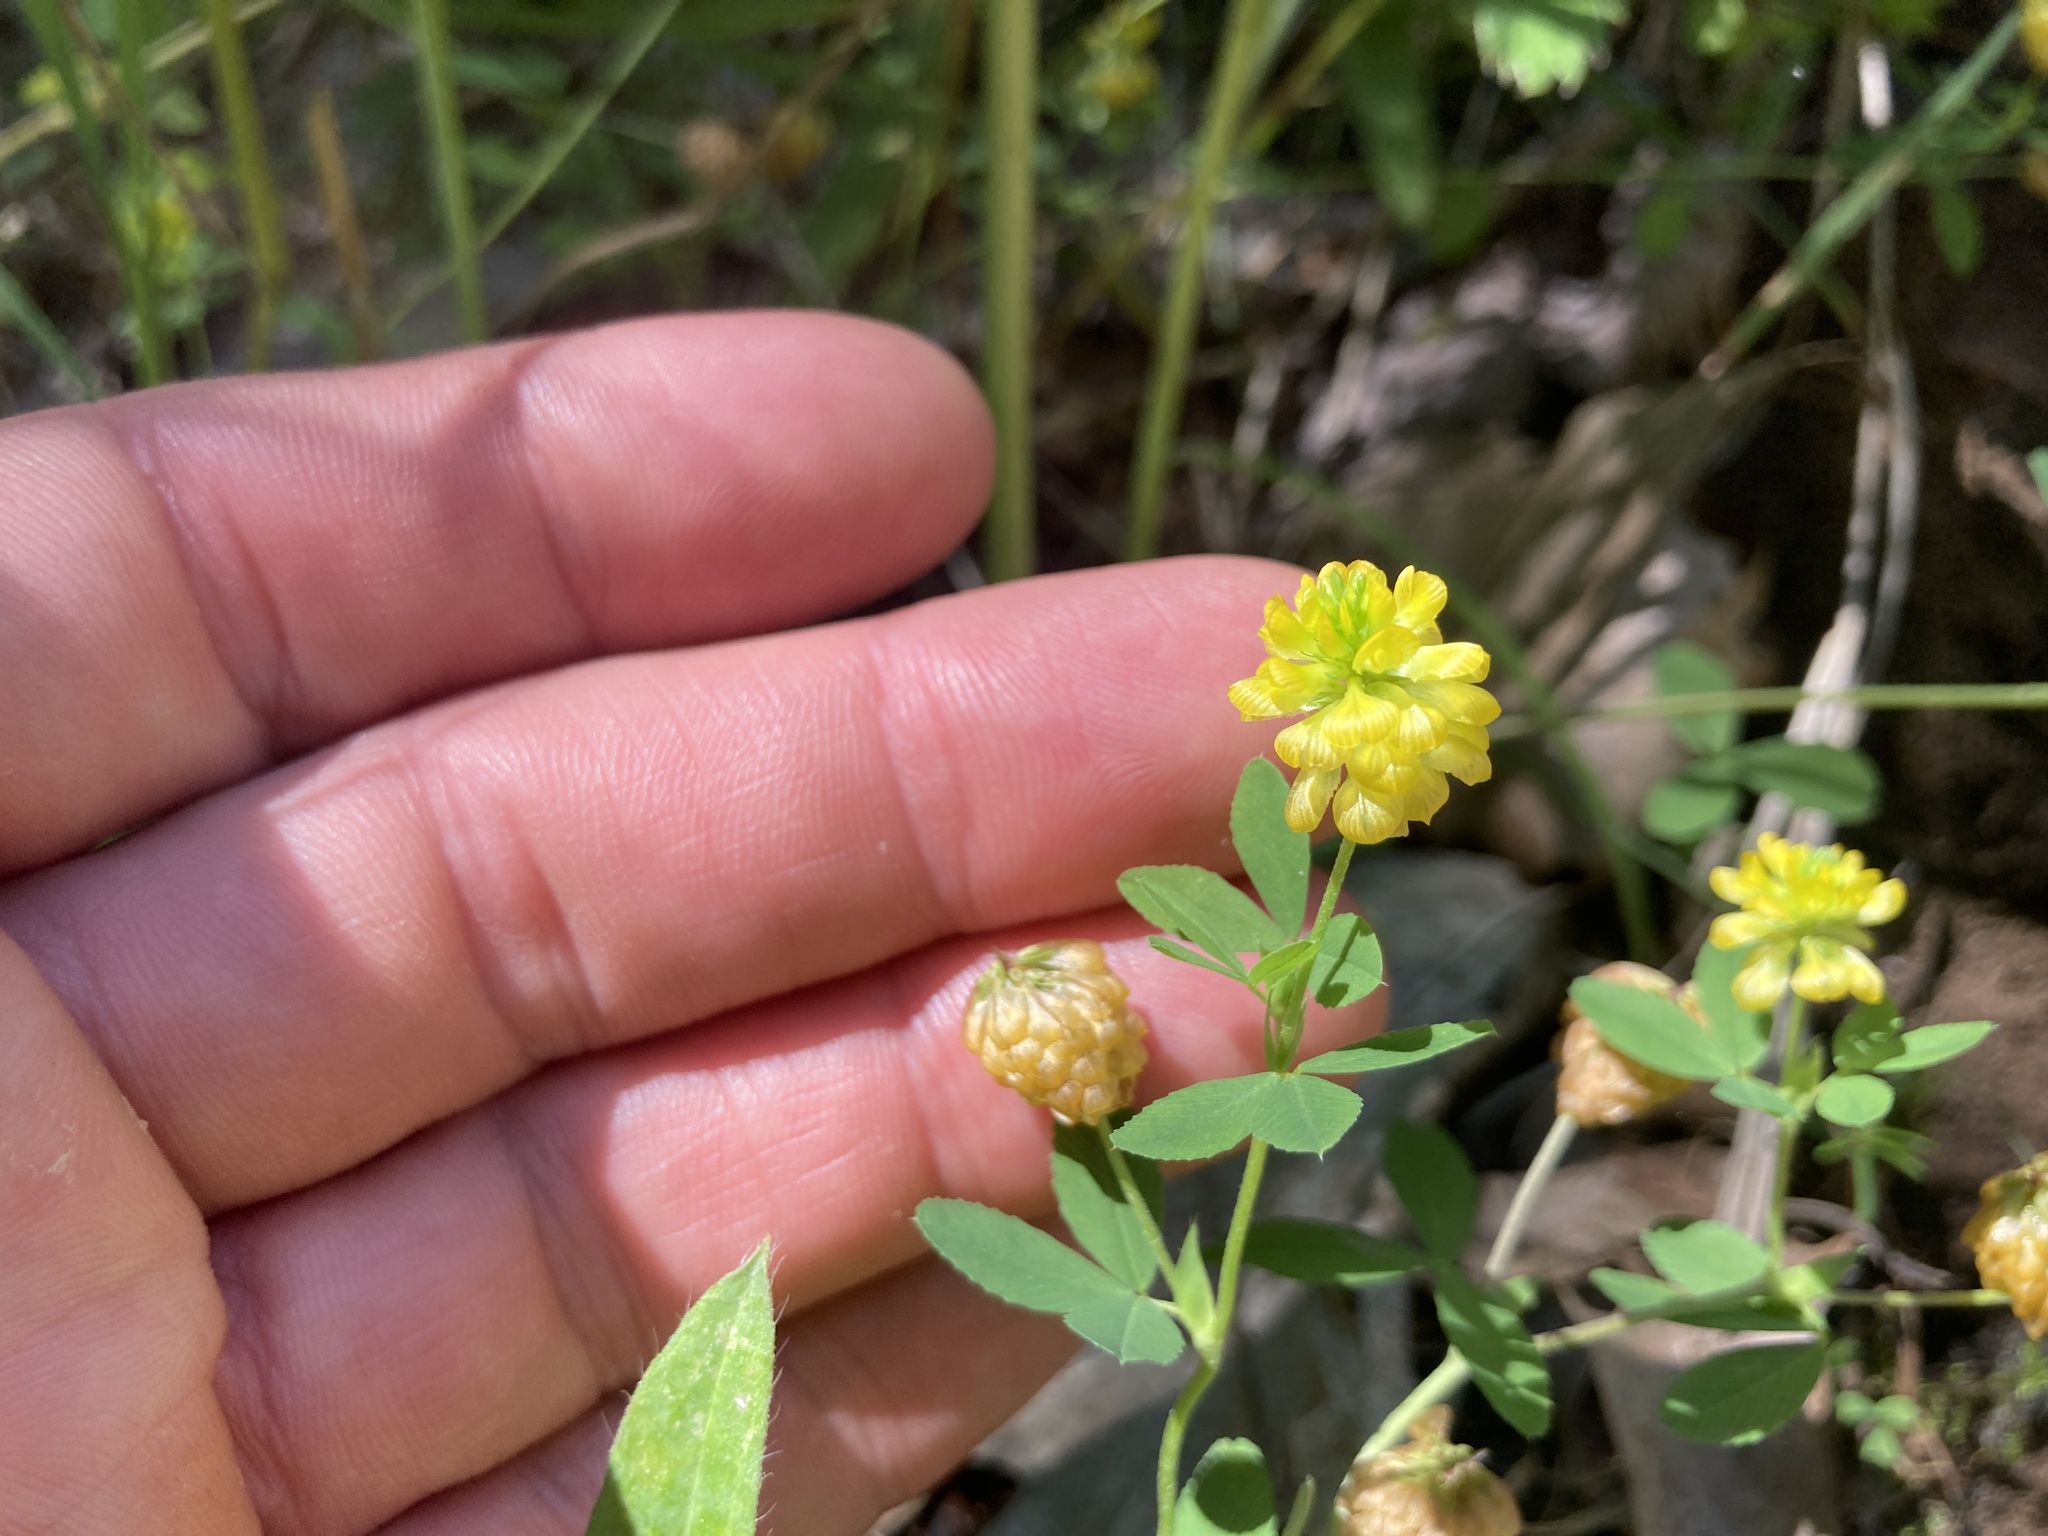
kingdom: Plantae
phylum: Tracheophyta
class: Magnoliopsida
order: Fabales
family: Fabaceae
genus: Trifolium
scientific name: Trifolium aureum
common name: Golden clover
